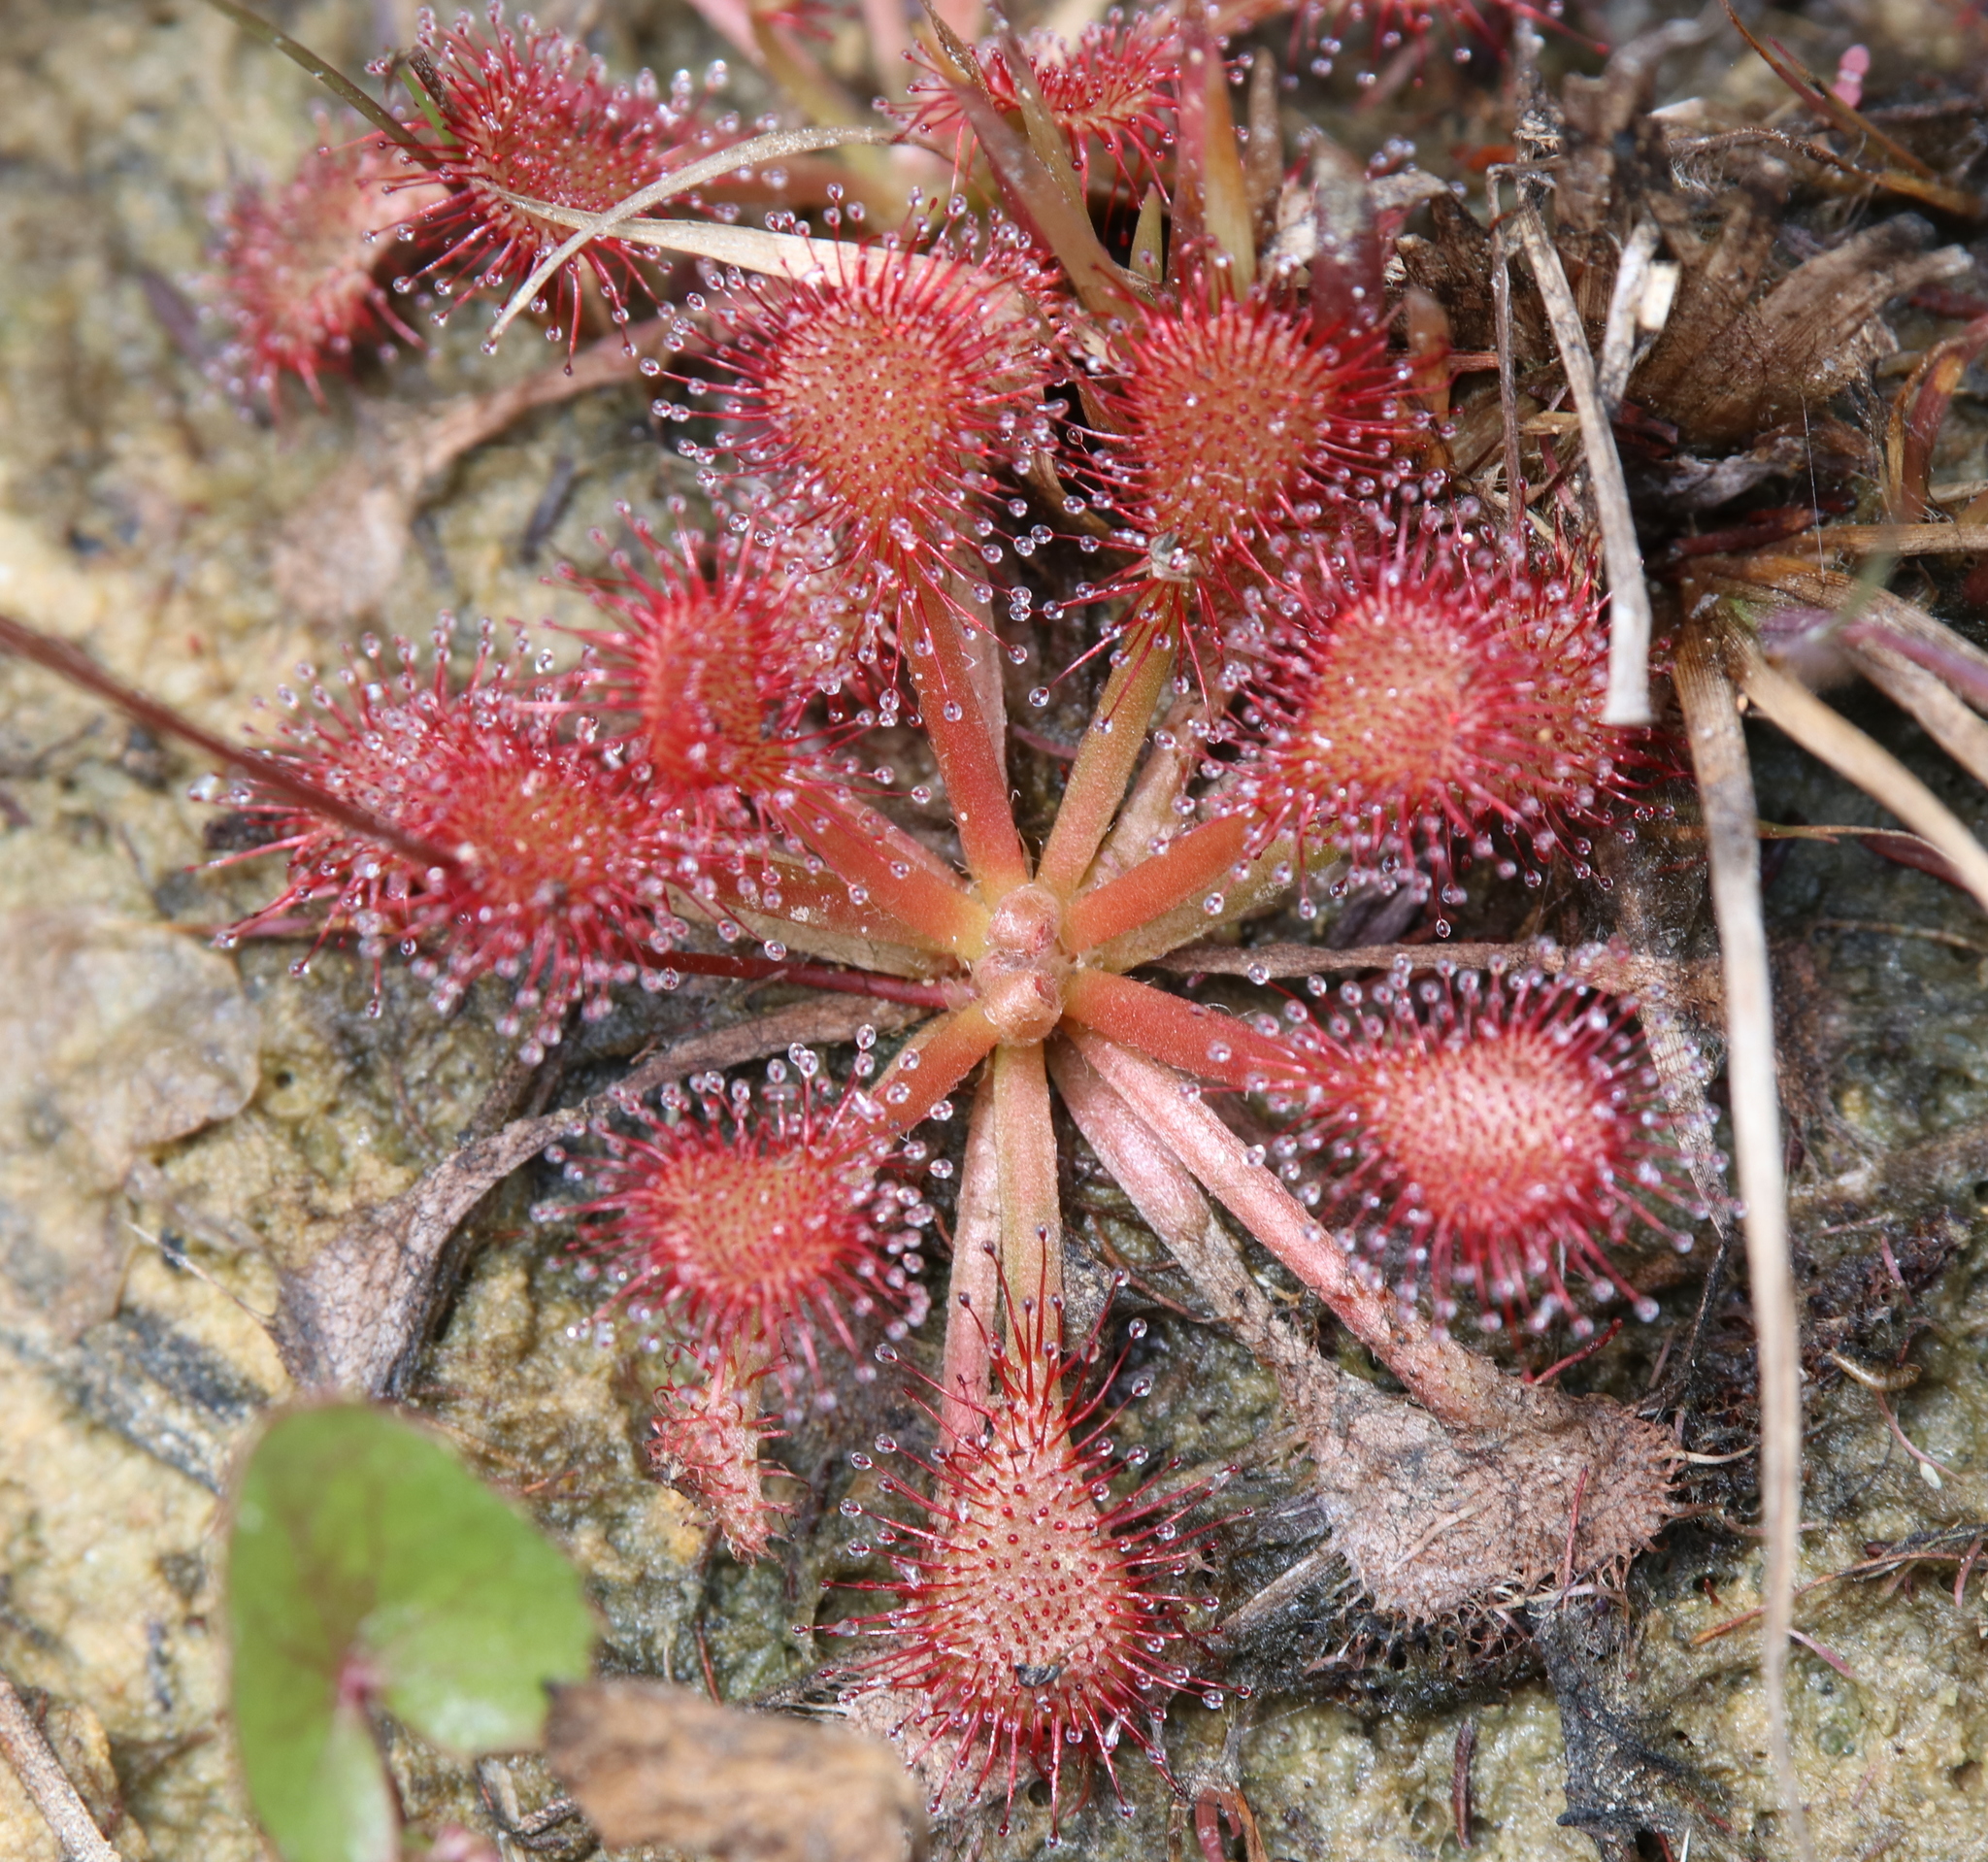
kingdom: Plantae
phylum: Tracheophyta
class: Magnoliopsida
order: Caryophyllales
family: Droseraceae
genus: Drosera
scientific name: Drosera capillaris
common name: Pink sundew
